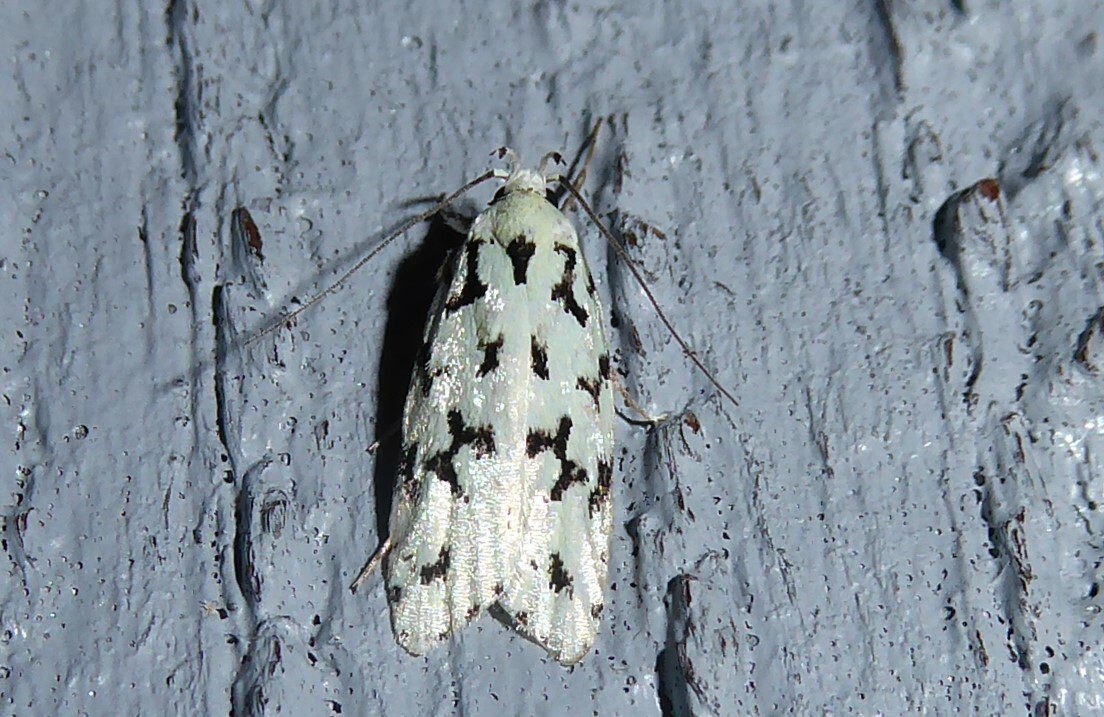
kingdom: Animalia
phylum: Arthropoda
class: Insecta
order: Lepidoptera
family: Oecophoridae
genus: Izatha
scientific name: Izatha huttoni
